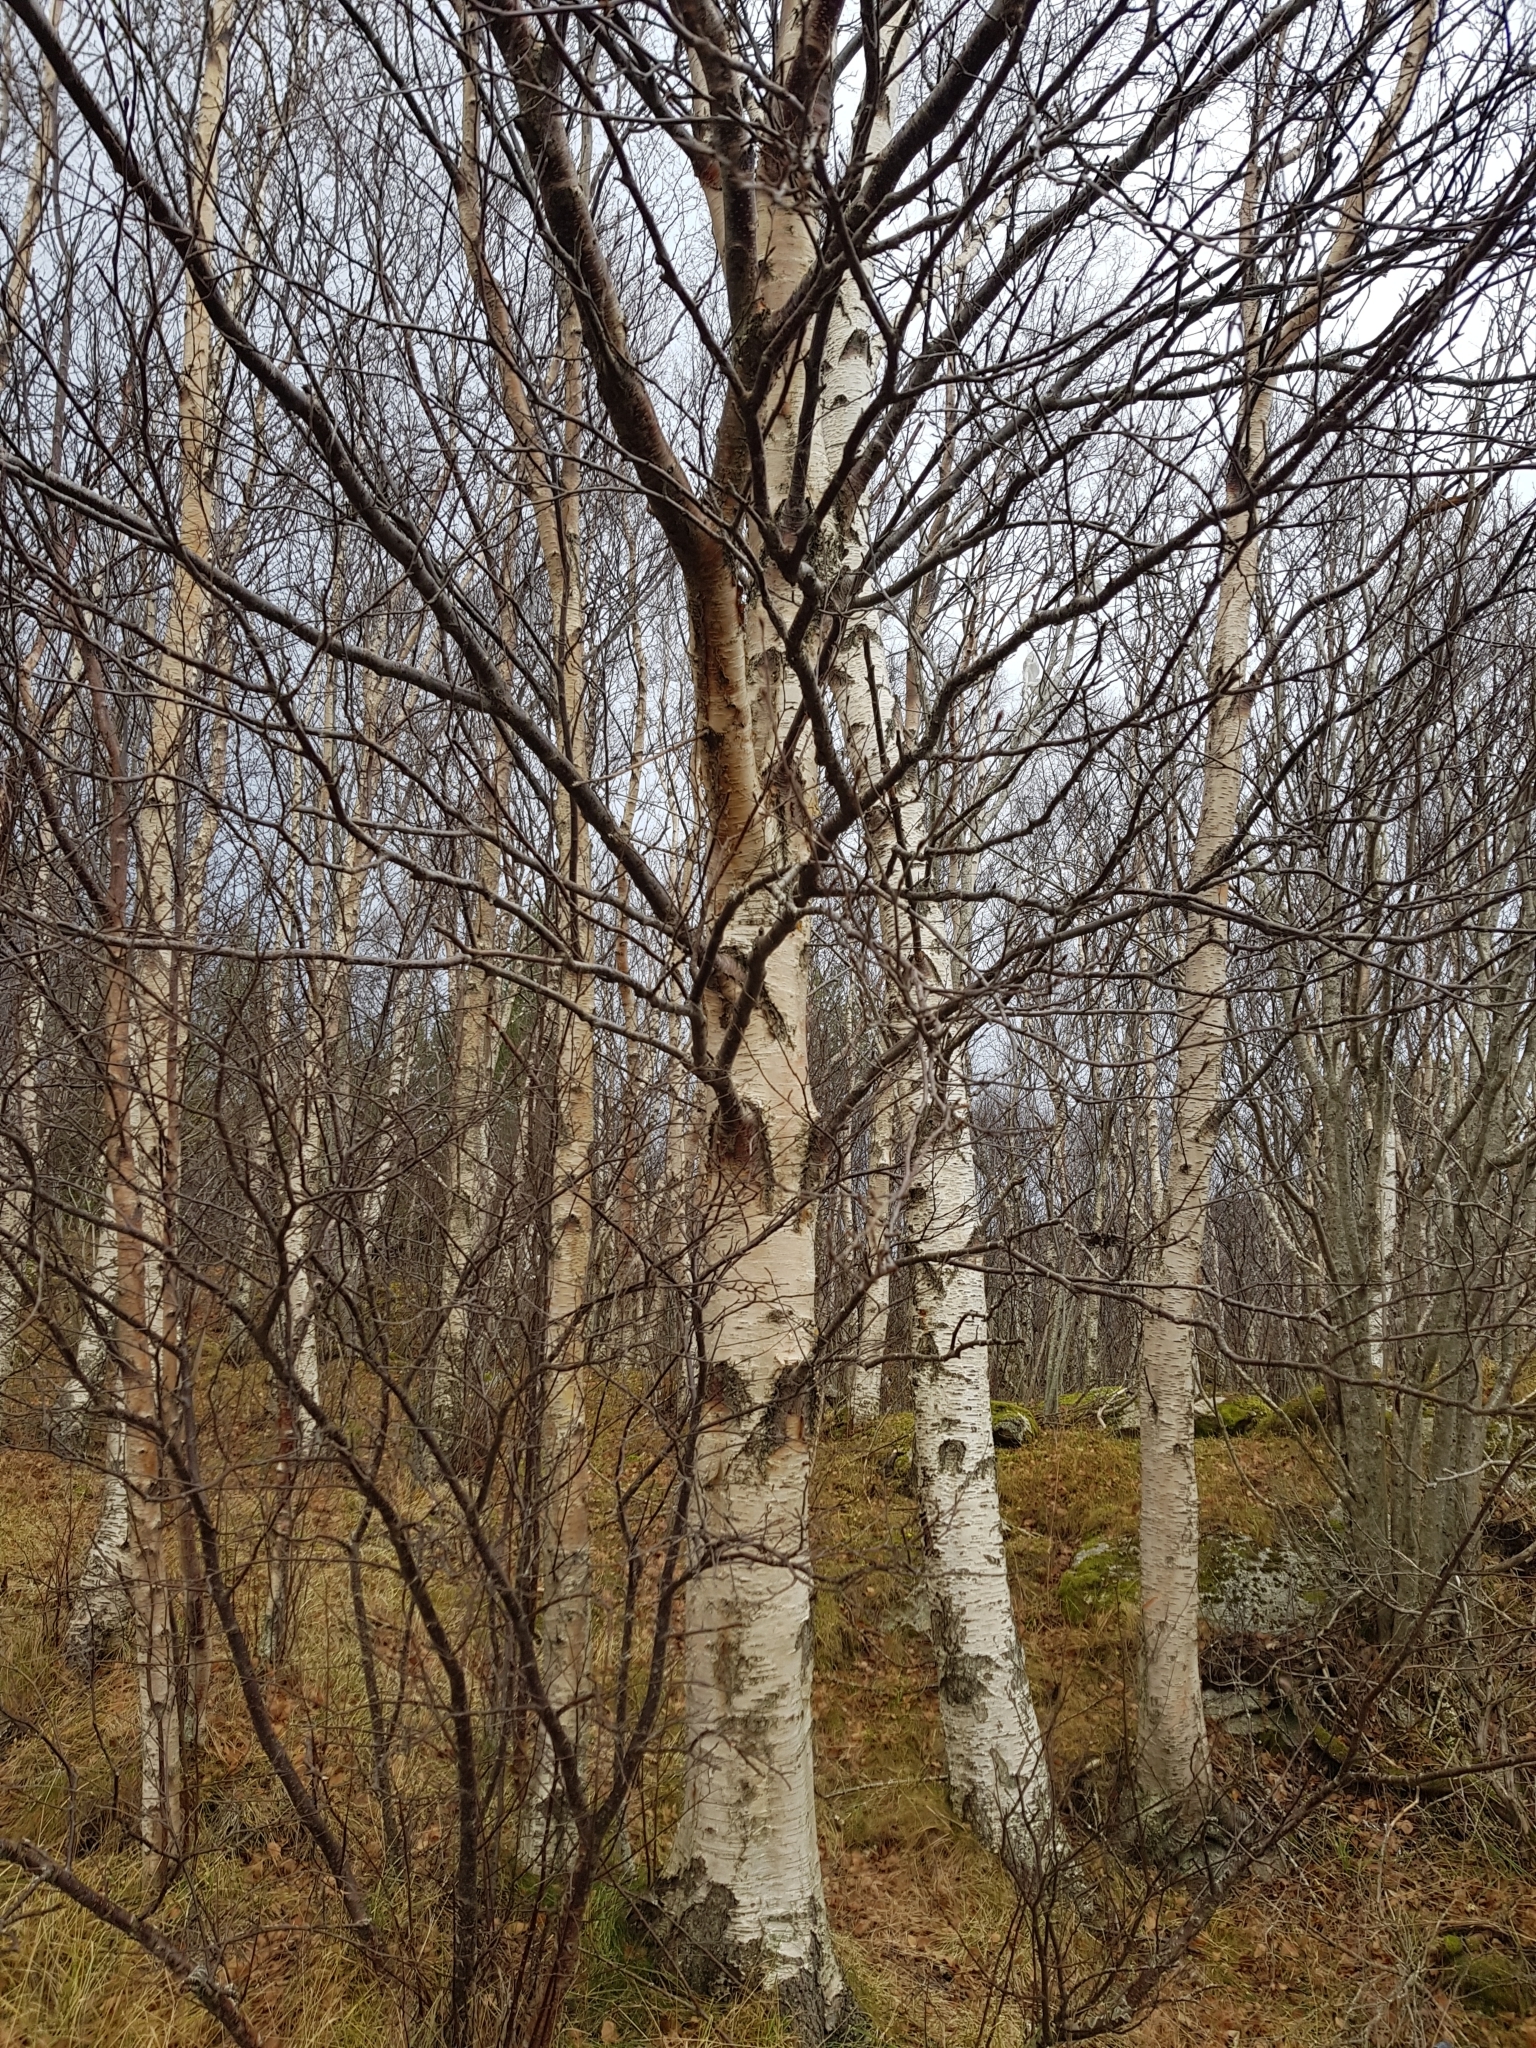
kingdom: Plantae
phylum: Tracheophyta
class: Magnoliopsida
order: Fagales
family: Betulaceae
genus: Betula
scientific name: Betula pubescens
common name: Downy birch
